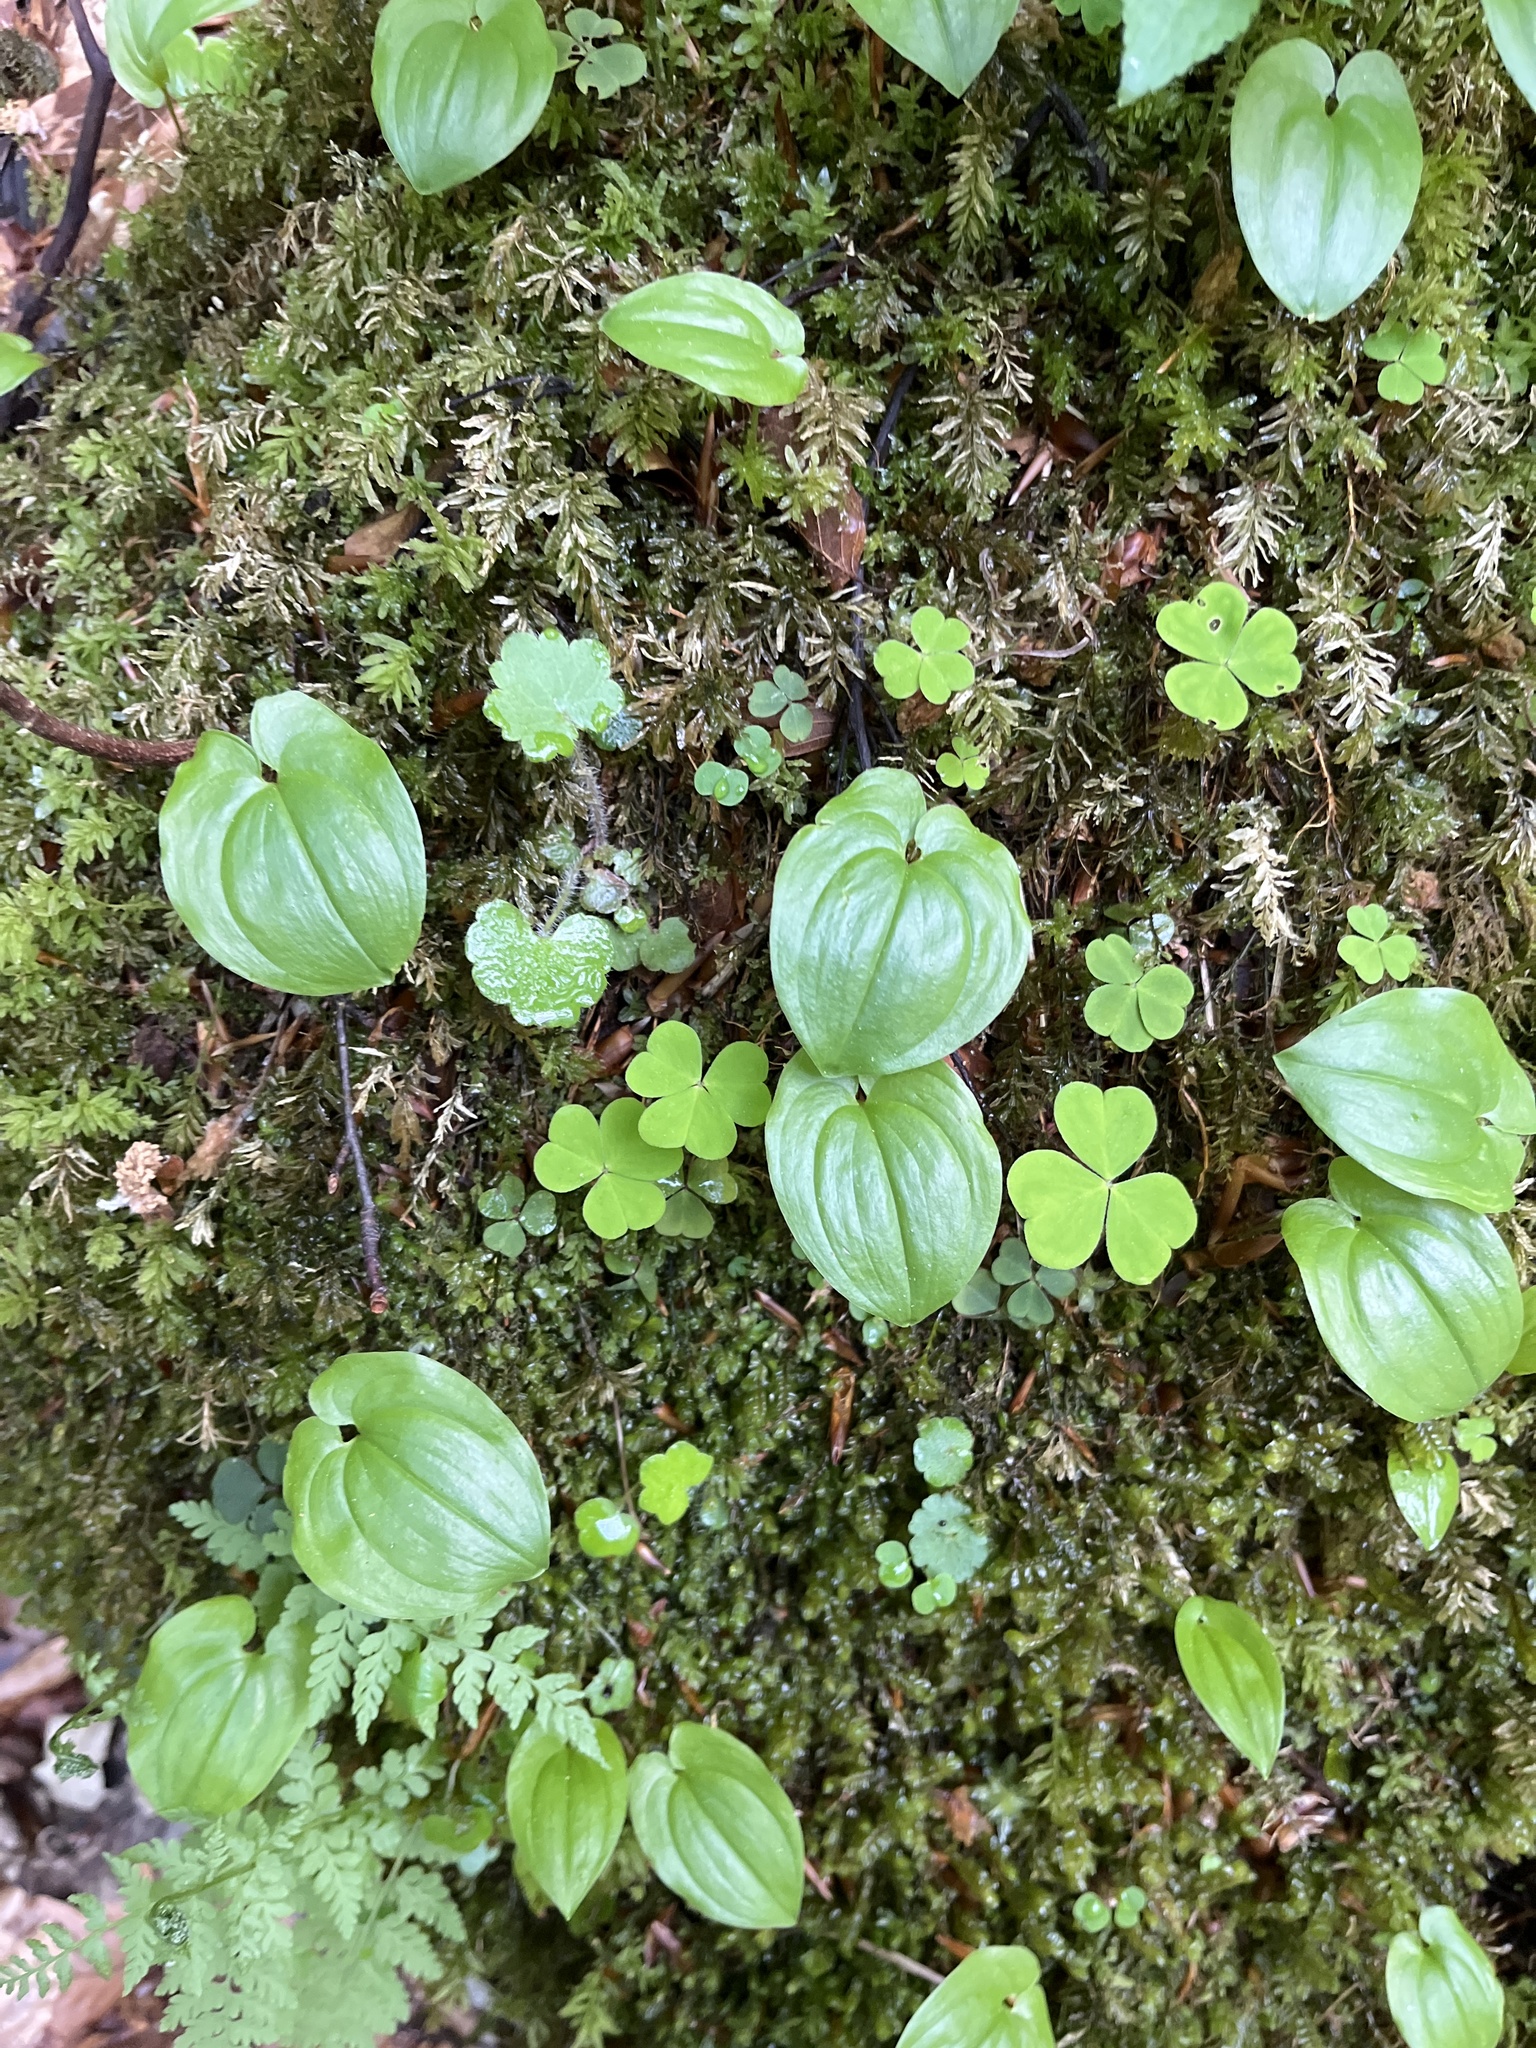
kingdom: Plantae
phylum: Tracheophyta
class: Liliopsida
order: Asparagales
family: Asparagaceae
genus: Maianthemum
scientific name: Maianthemum bifolium
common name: May lily
